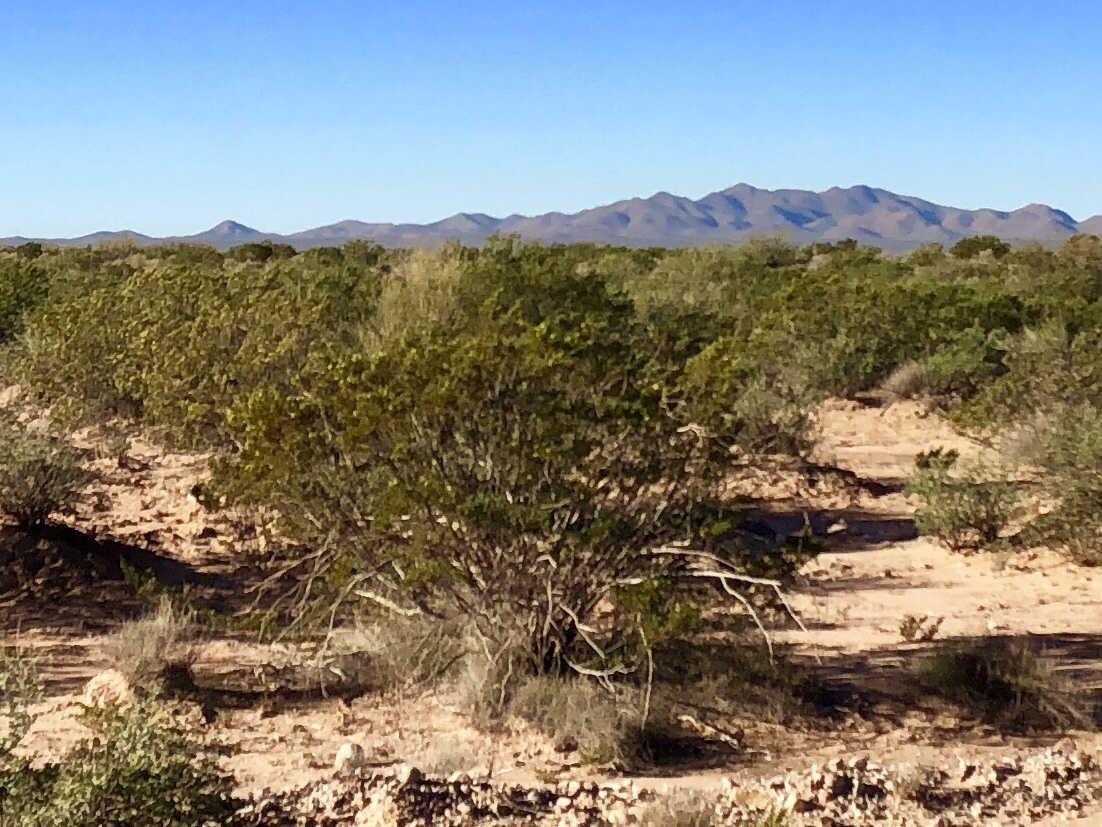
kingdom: Plantae
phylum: Tracheophyta
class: Magnoliopsida
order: Zygophyllales
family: Zygophyllaceae
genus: Larrea
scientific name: Larrea tridentata
